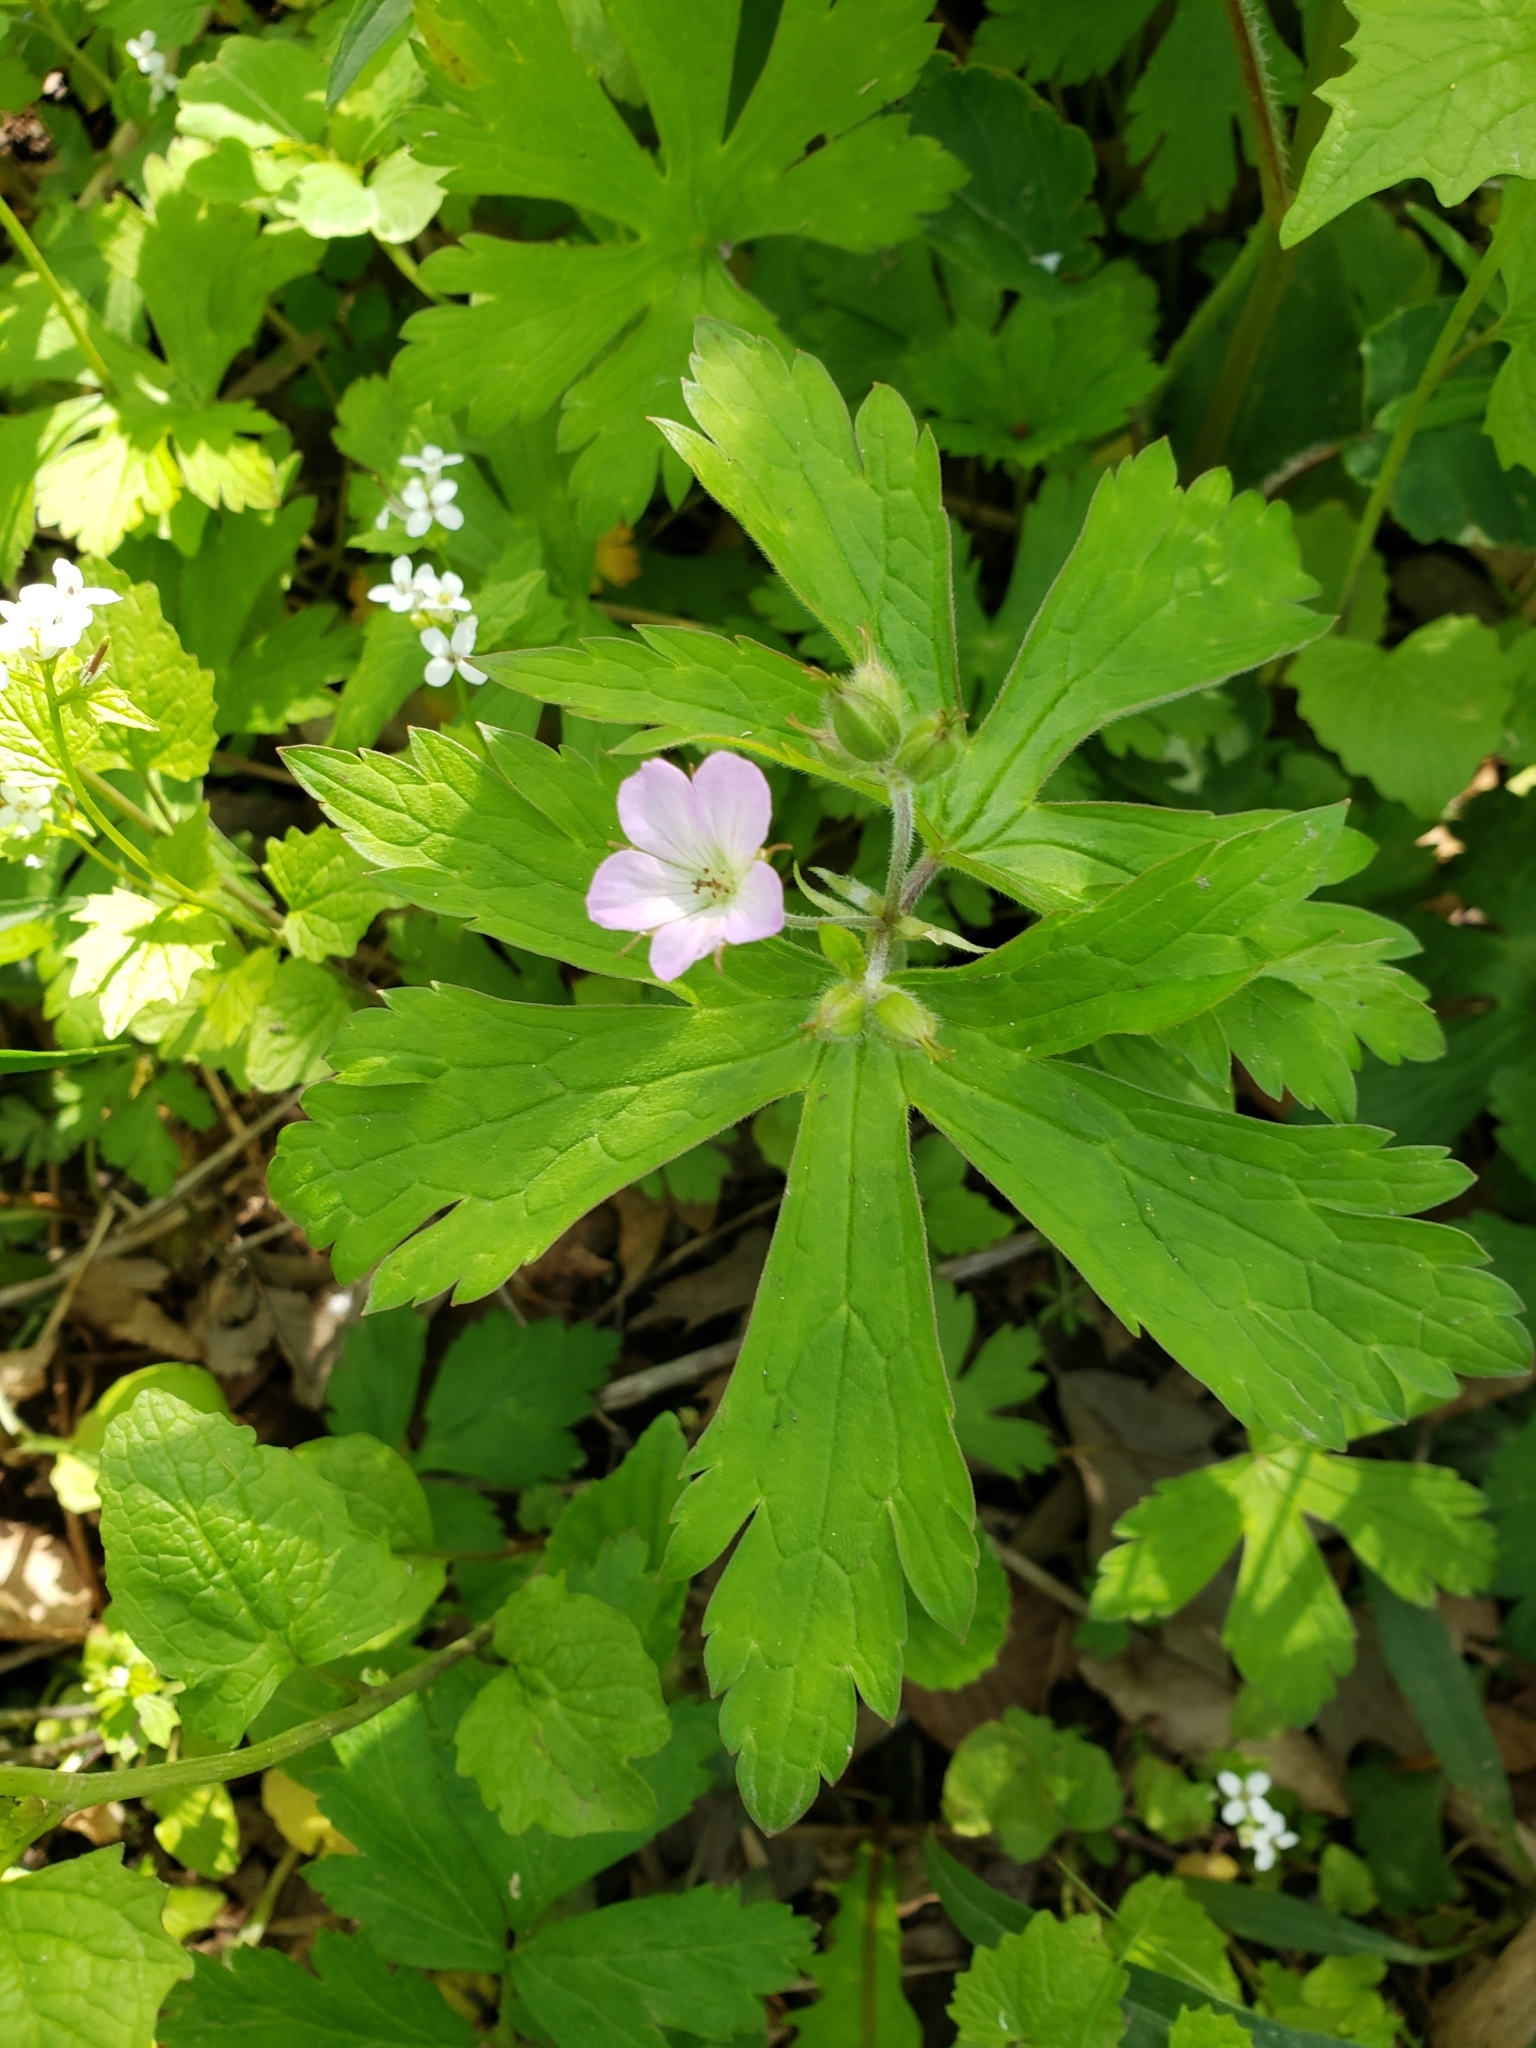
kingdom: Plantae
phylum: Tracheophyta
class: Magnoliopsida
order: Geraniales
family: Geraniaceae
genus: Geranium
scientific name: Geranium maculatum
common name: Spotted geranium
